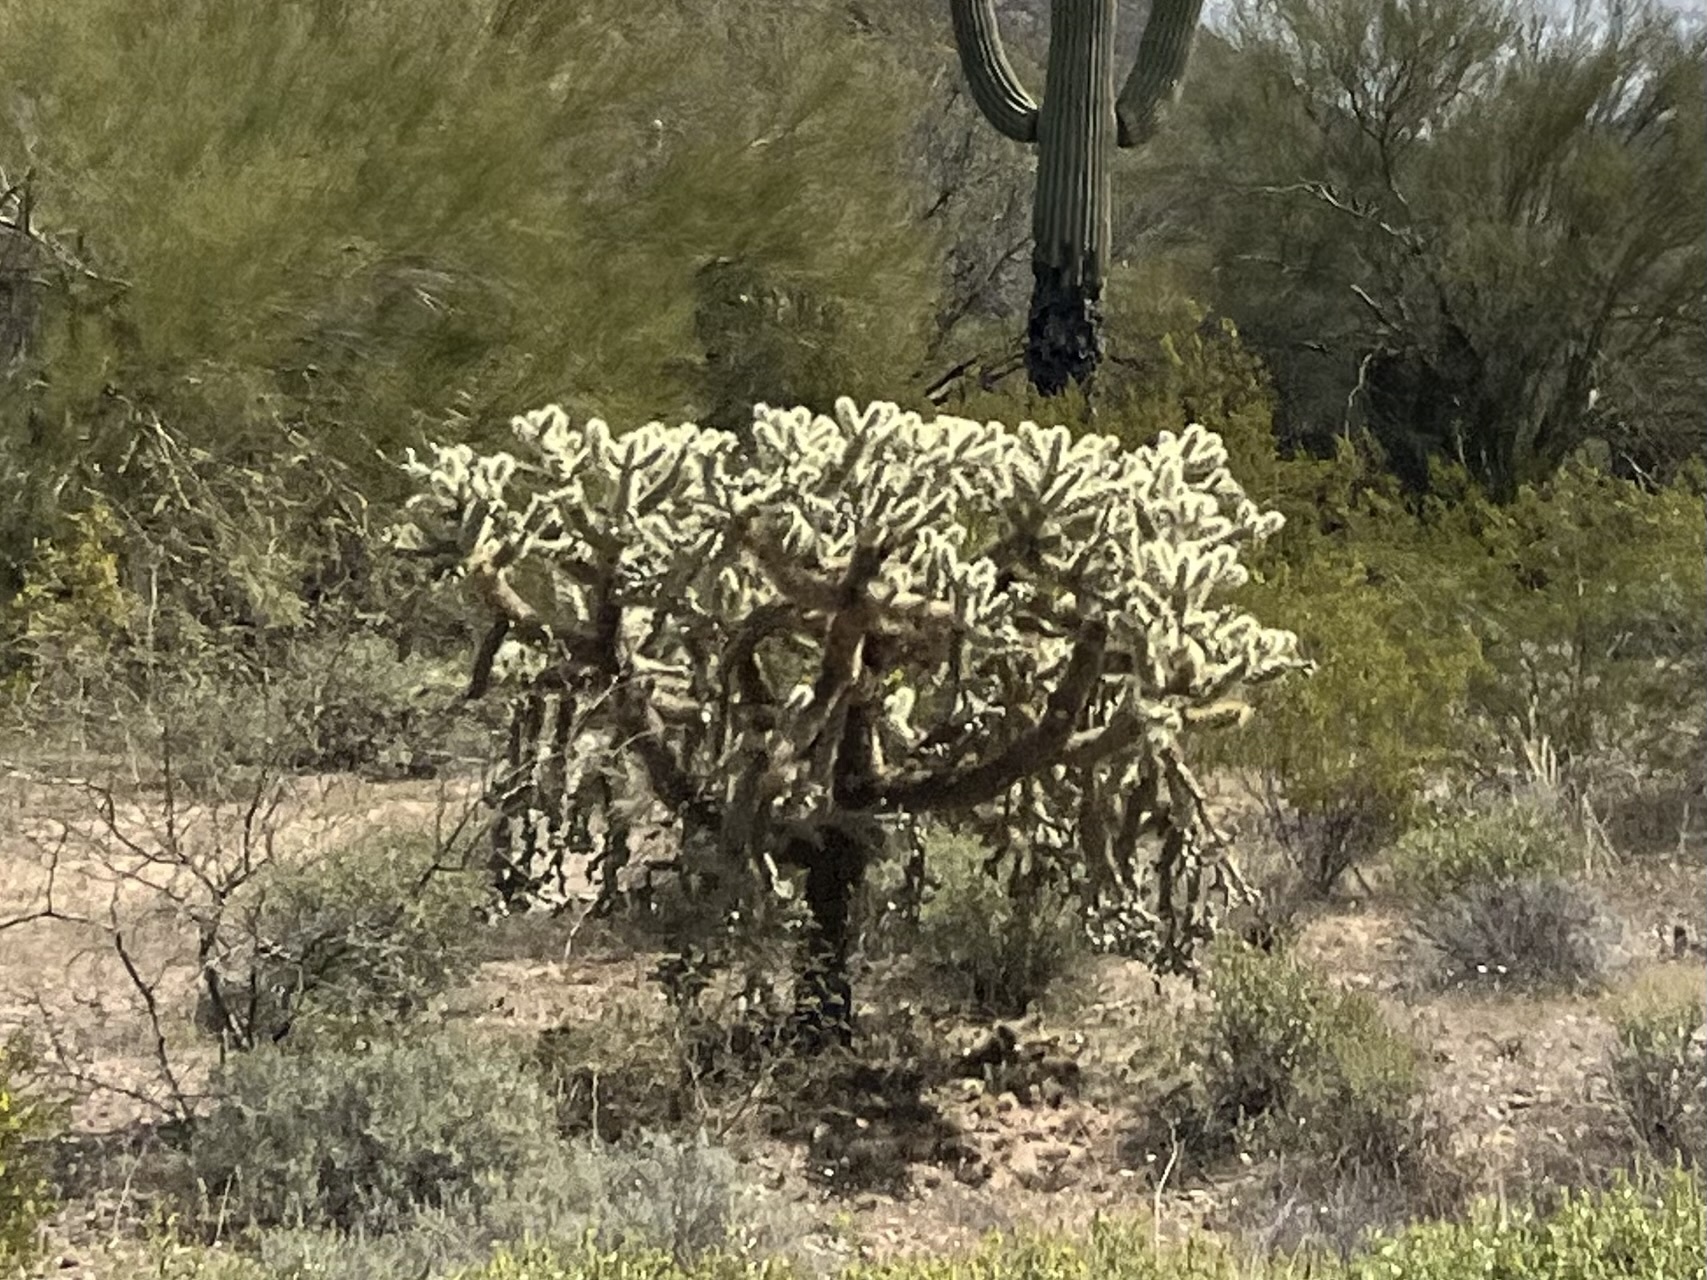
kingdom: Plantae
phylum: Tracheophyta
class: Magnoliopsida
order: Caryophyllales
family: Cactaceae
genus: Cylindropuntia
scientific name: Cylindropuntia fulgida
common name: Jumping cholla
